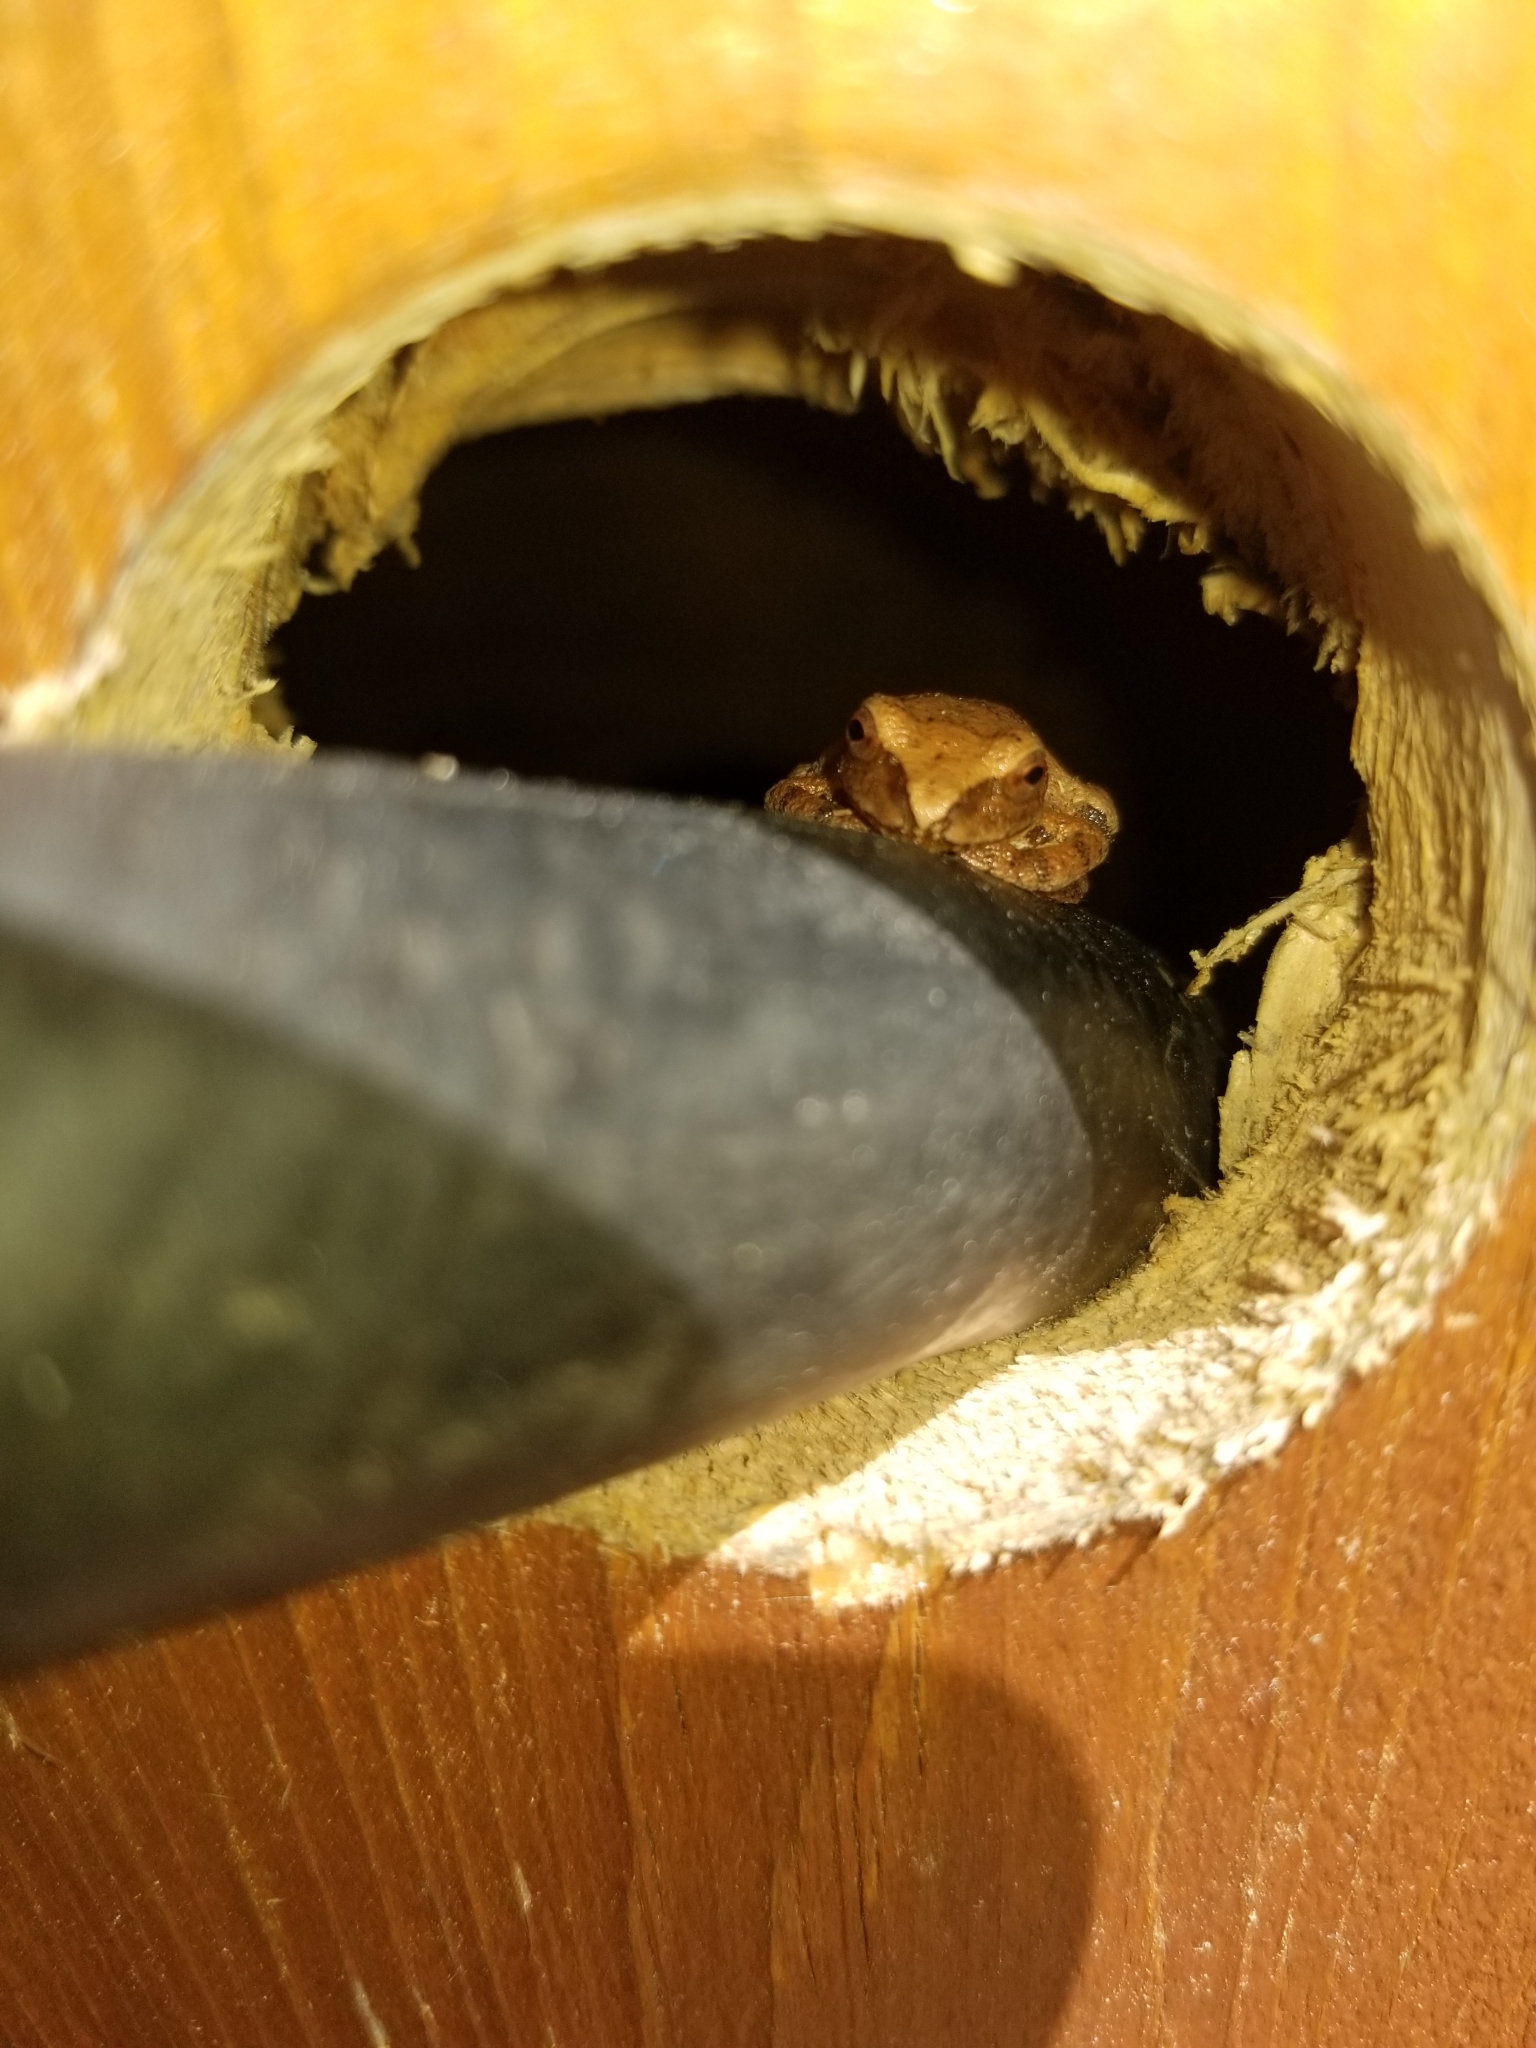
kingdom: Animalia
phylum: Chordata
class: Amphibia
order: Anura
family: Hylidae
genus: Pseudacris
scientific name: Pseudacris crucifer
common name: Spring peeper
